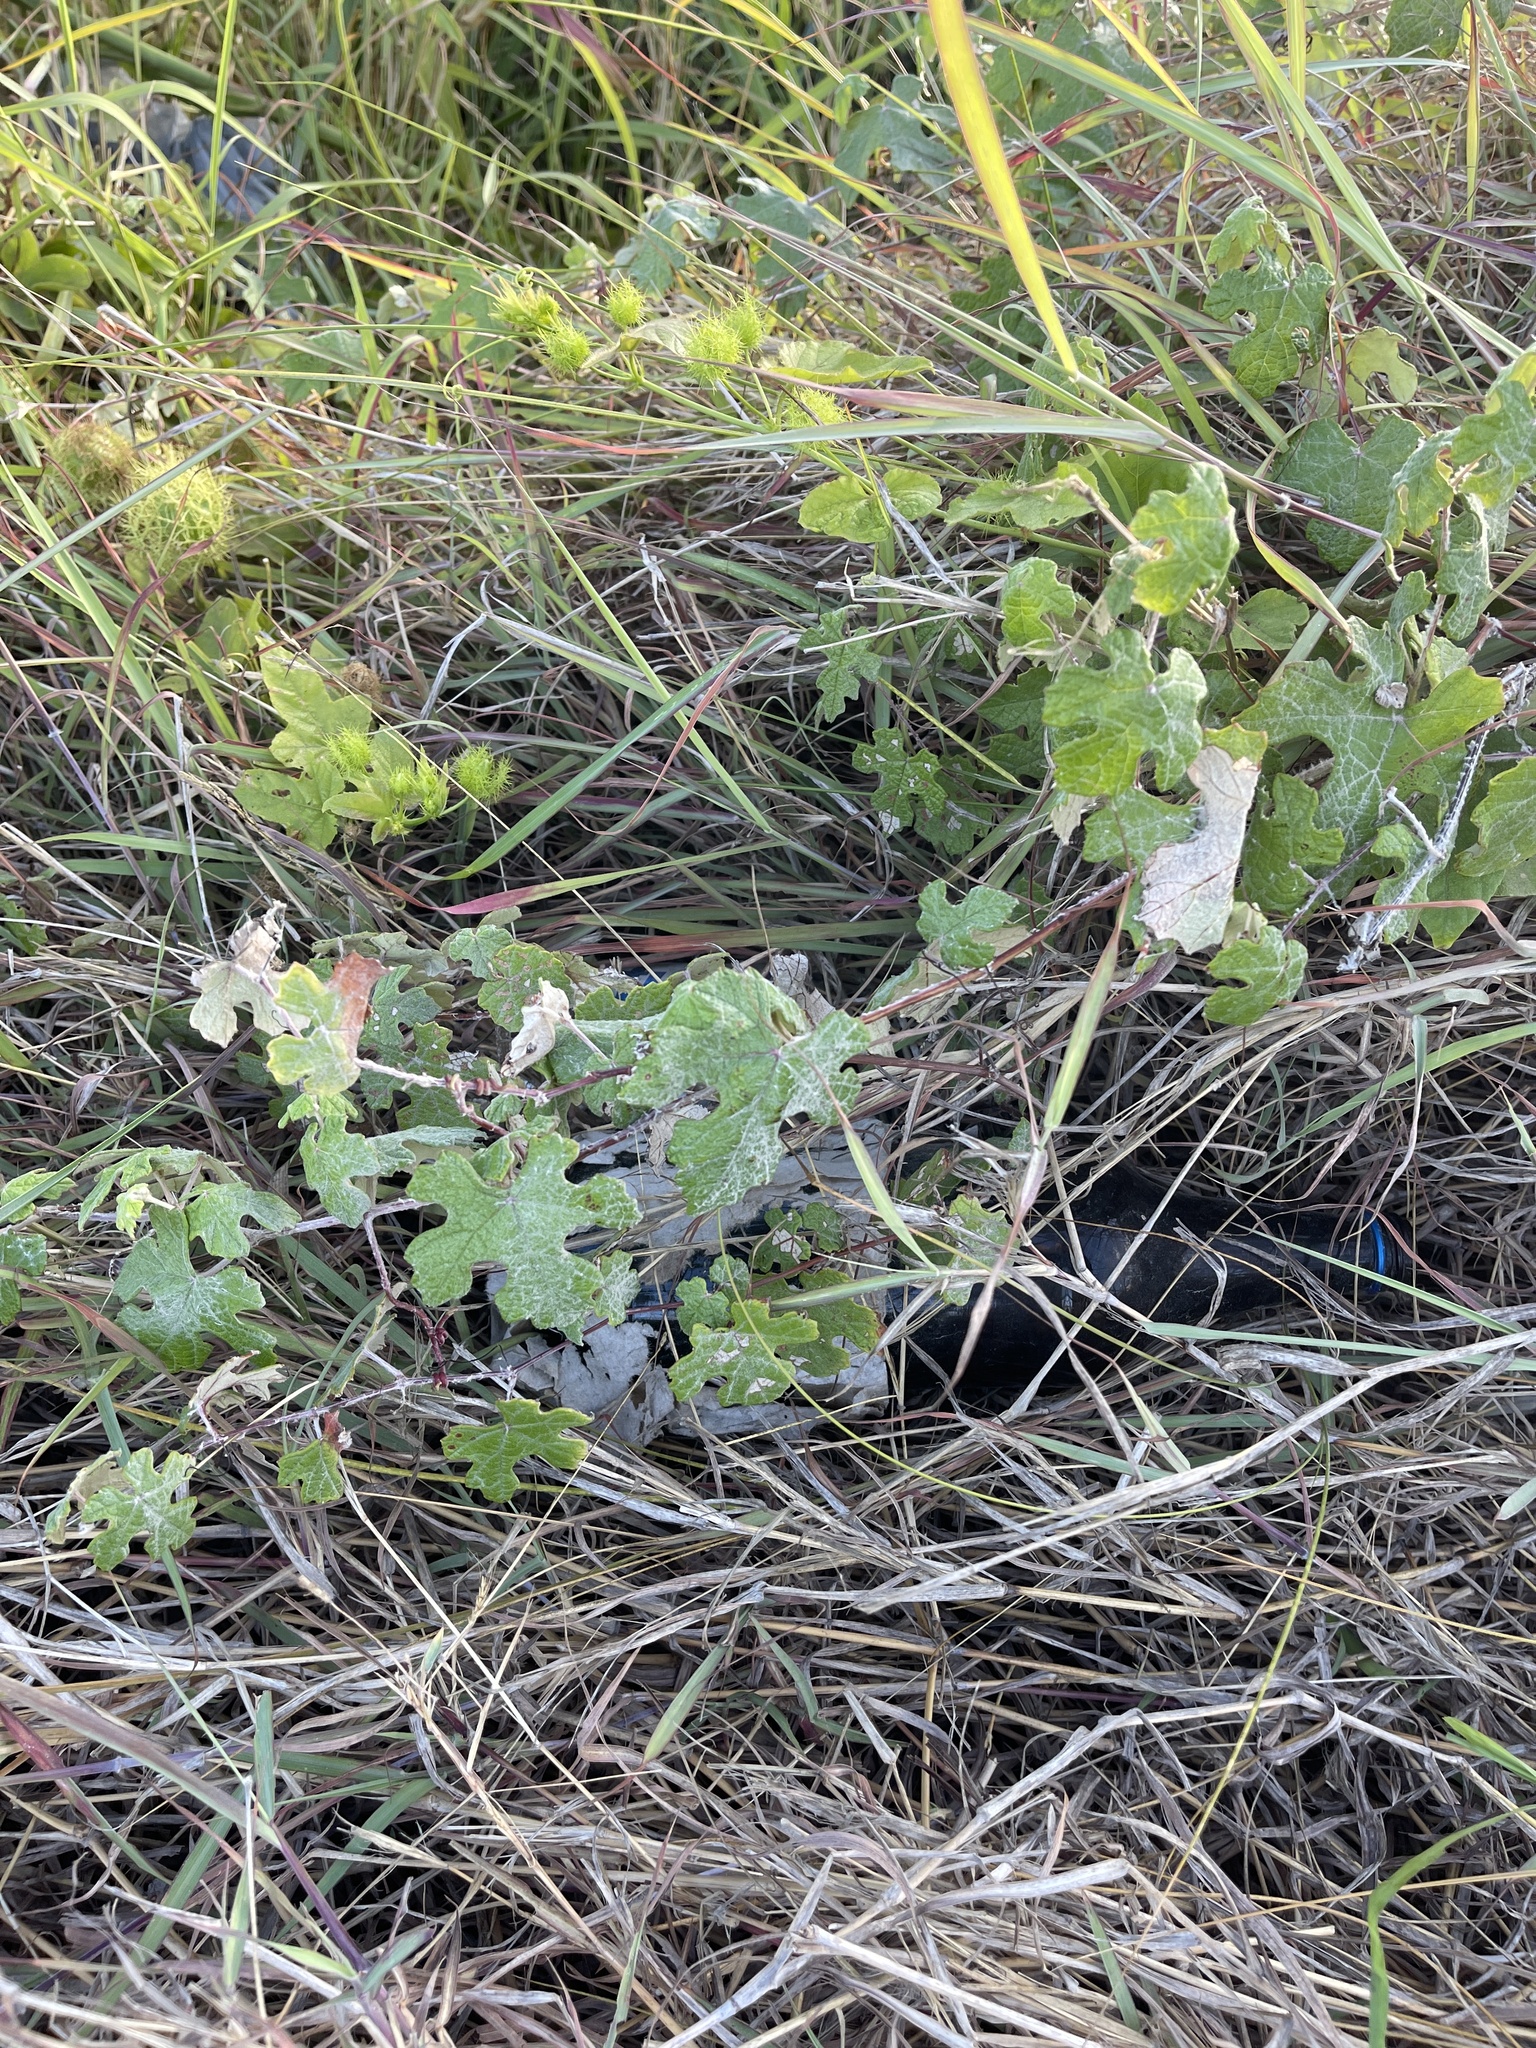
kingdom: Plantae
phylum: Tracheophyta
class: Magnoliopsida
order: Vitales
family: Vitaceae
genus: Vitis
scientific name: Vitis mustangensis
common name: Mustang grape
